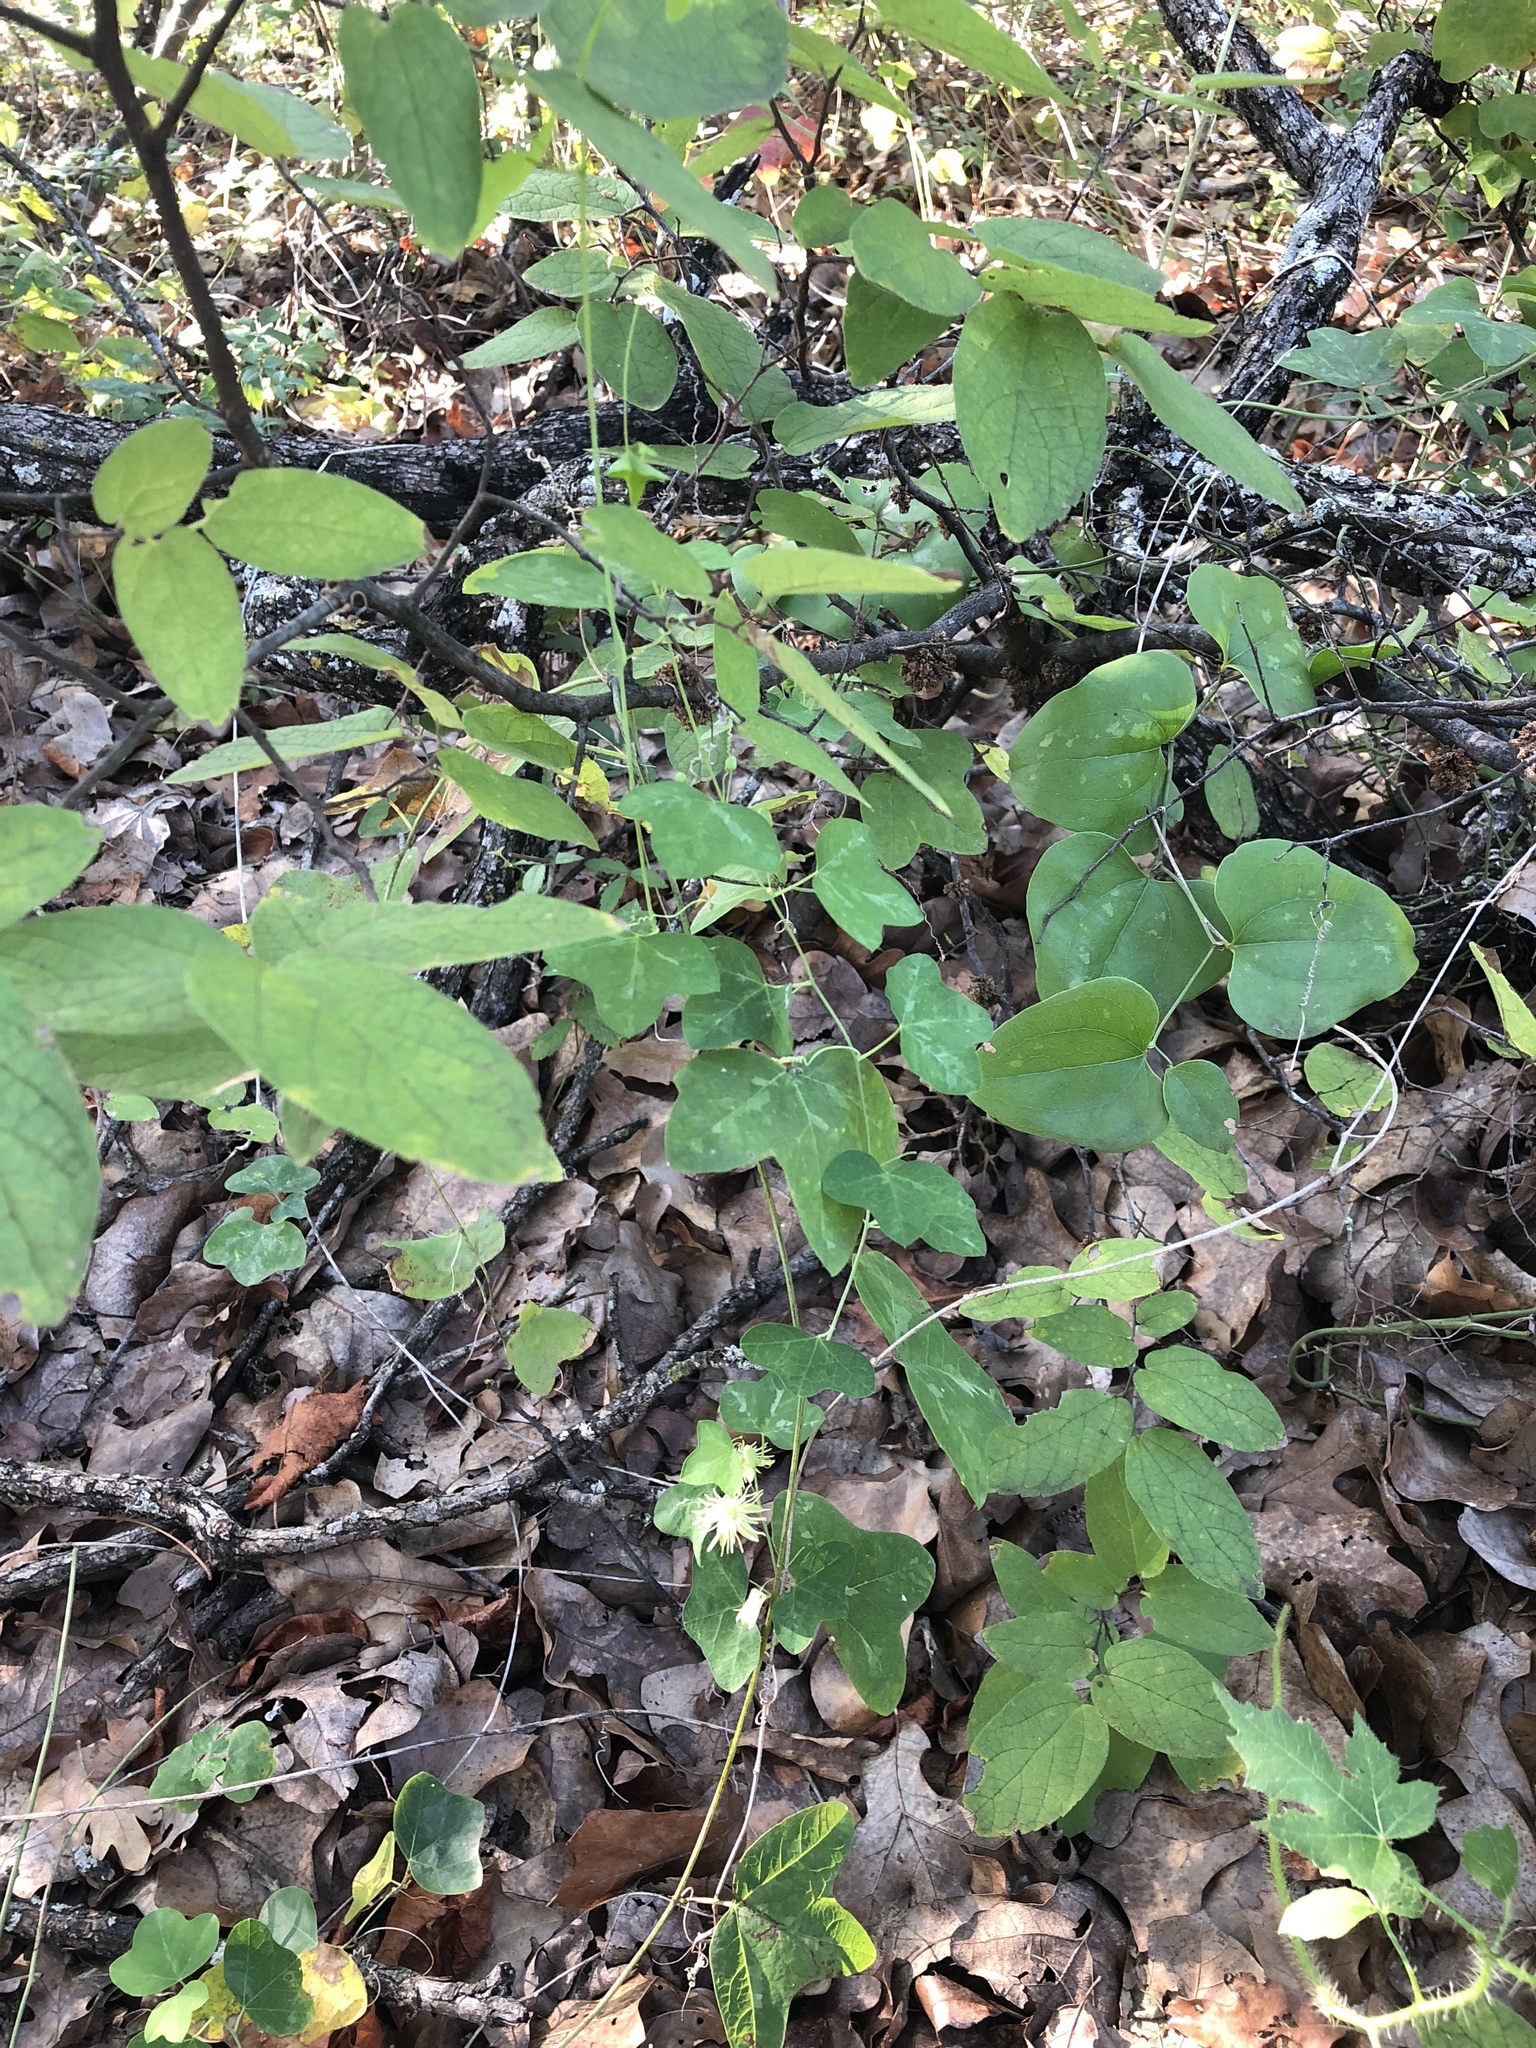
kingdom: Plantae
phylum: Tracheophyta
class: Magnoliopsida
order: Malpighiales
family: Passifloraceae
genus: Passiflora
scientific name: Passiflora lutea
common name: Yellow passionflower
